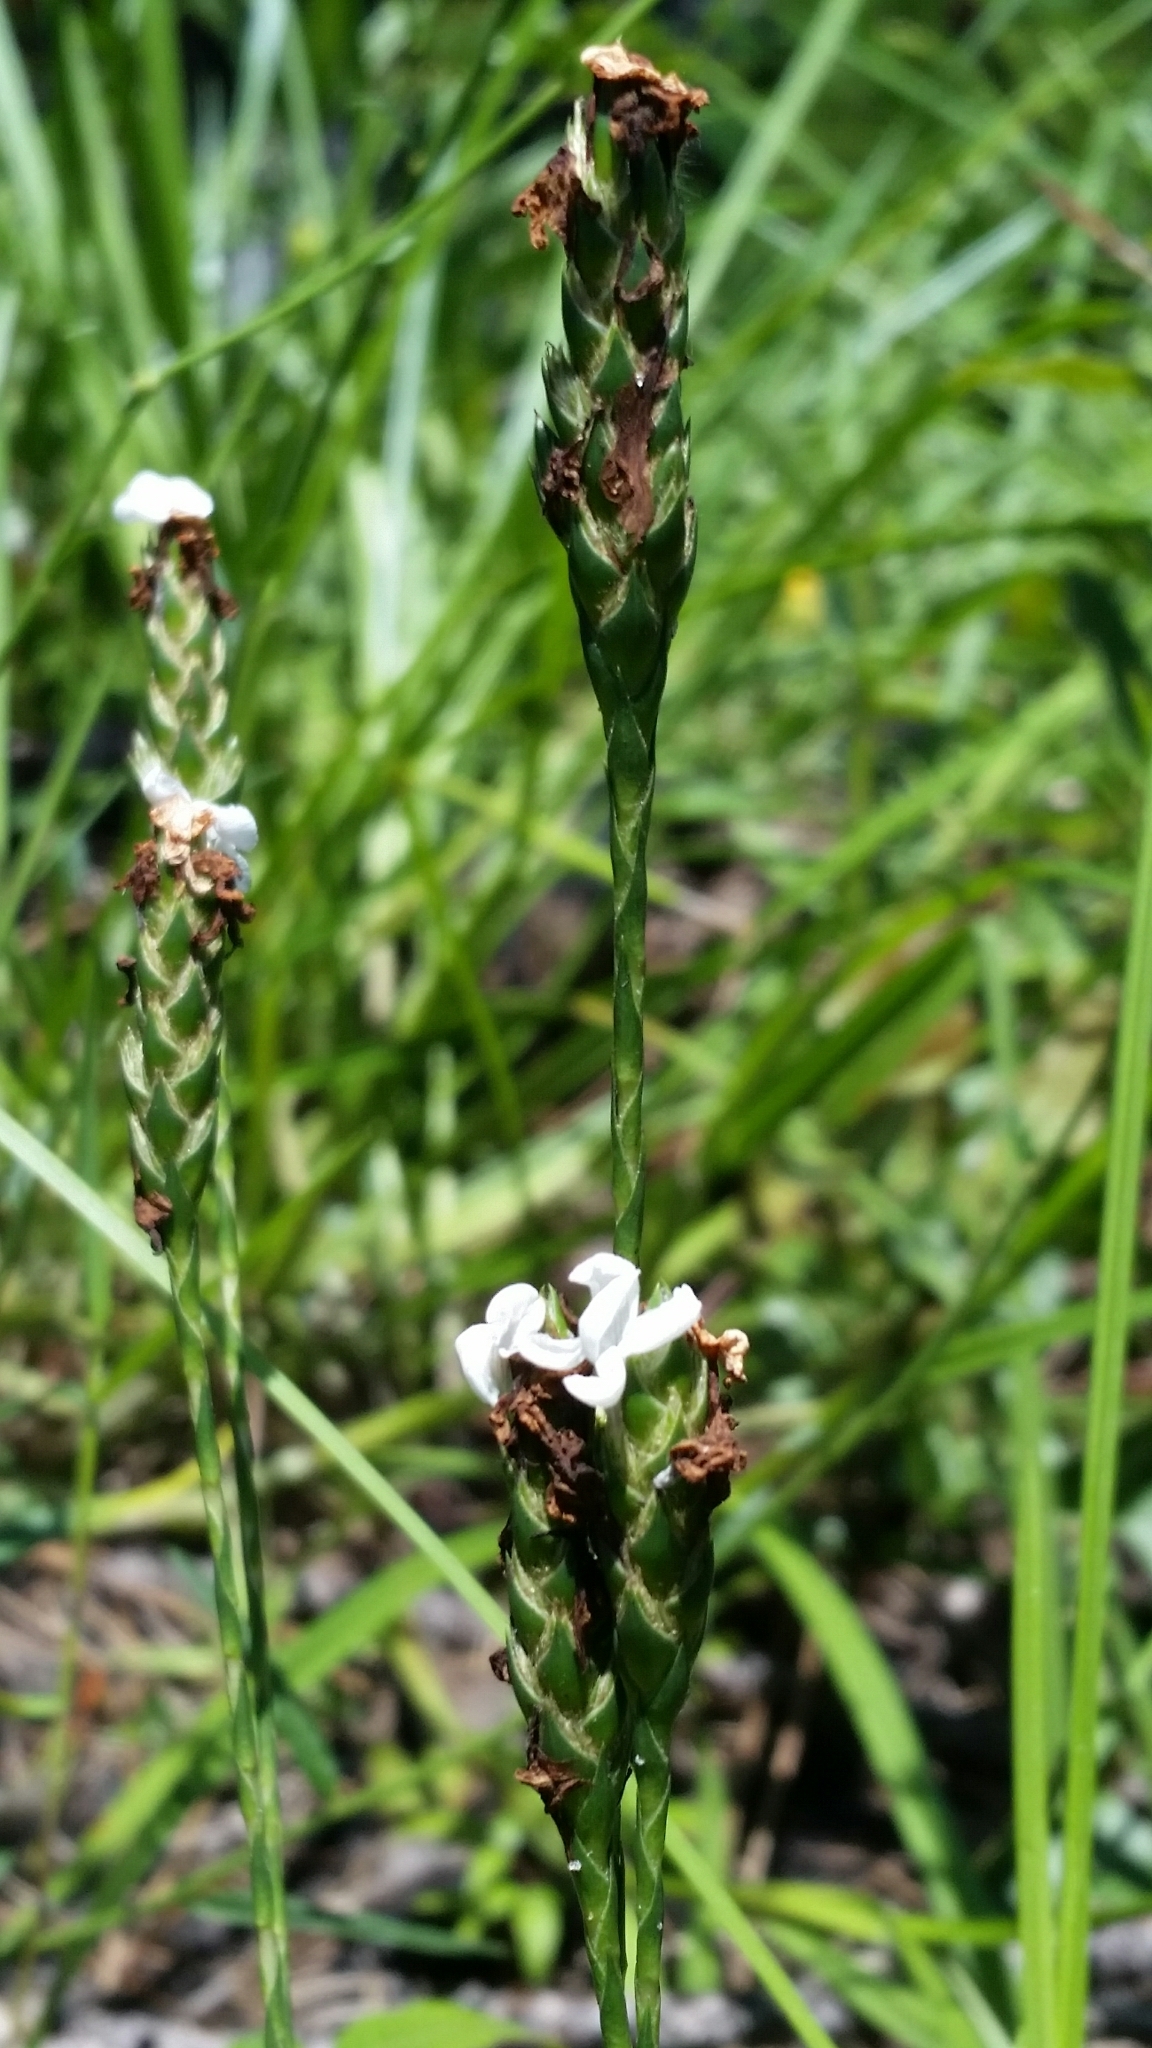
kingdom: Plantae
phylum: Tracheophyta
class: Magnoliopsida
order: Lamiales
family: Acanthaceae
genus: Elytraria
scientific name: Elytraria caroliniensis
